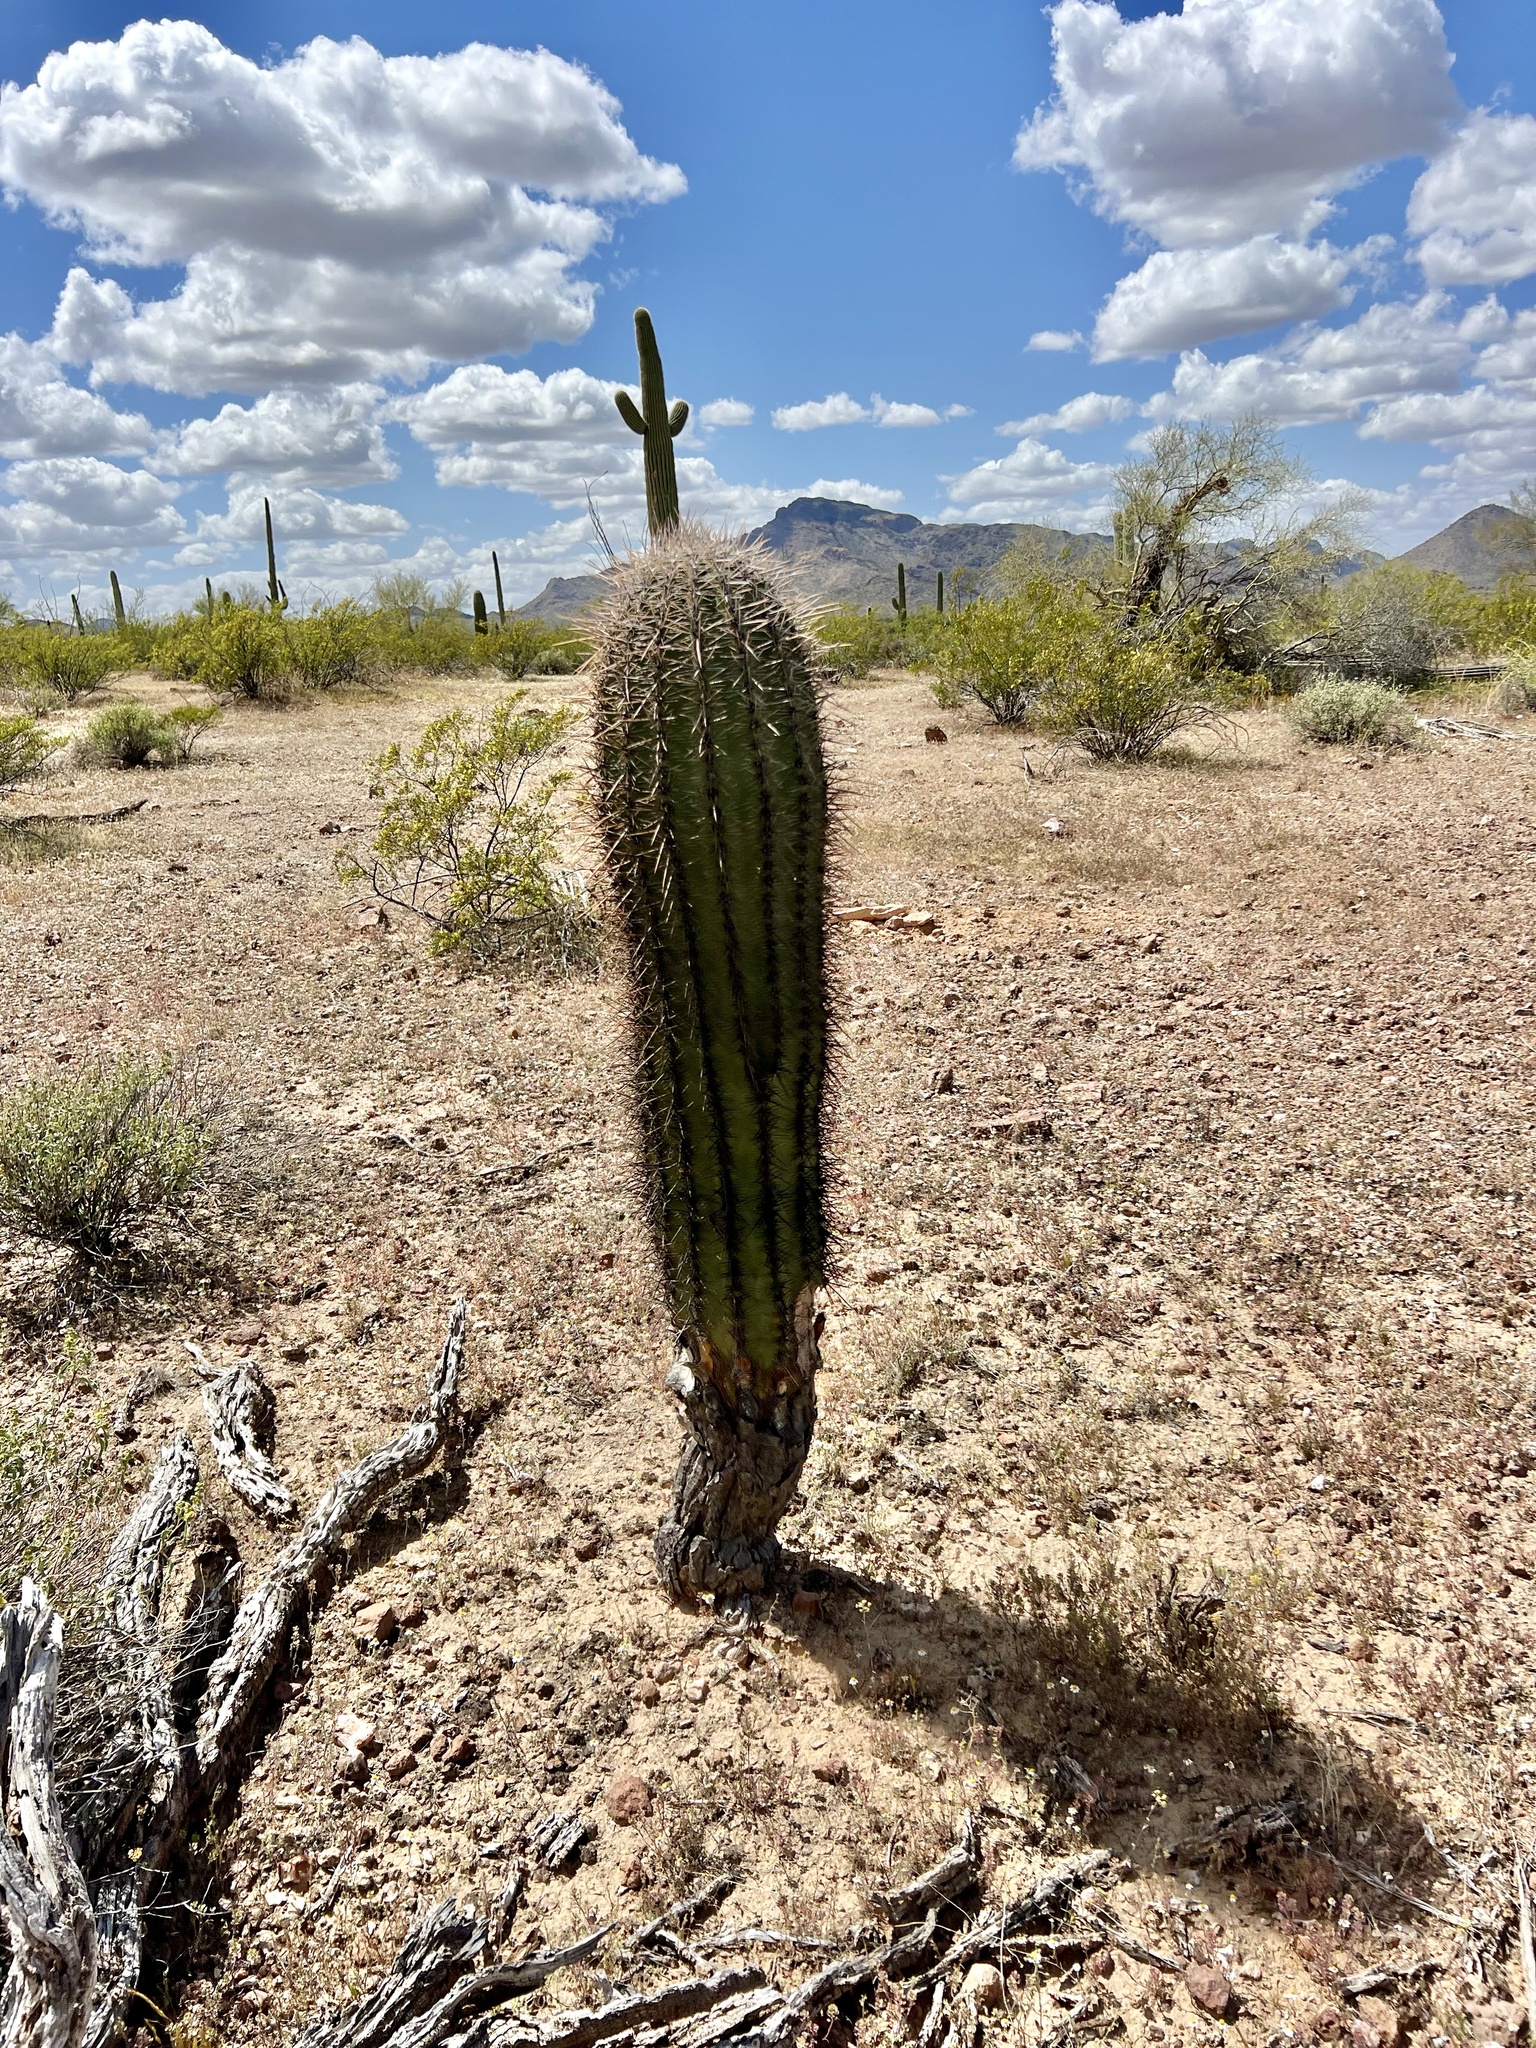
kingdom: Plantae
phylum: Tracheophyta
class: Magnoliopsida
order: Caryophyllales
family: Cactaceae
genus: Carnegiea
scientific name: Carnegiea gigantea
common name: Saguaro
